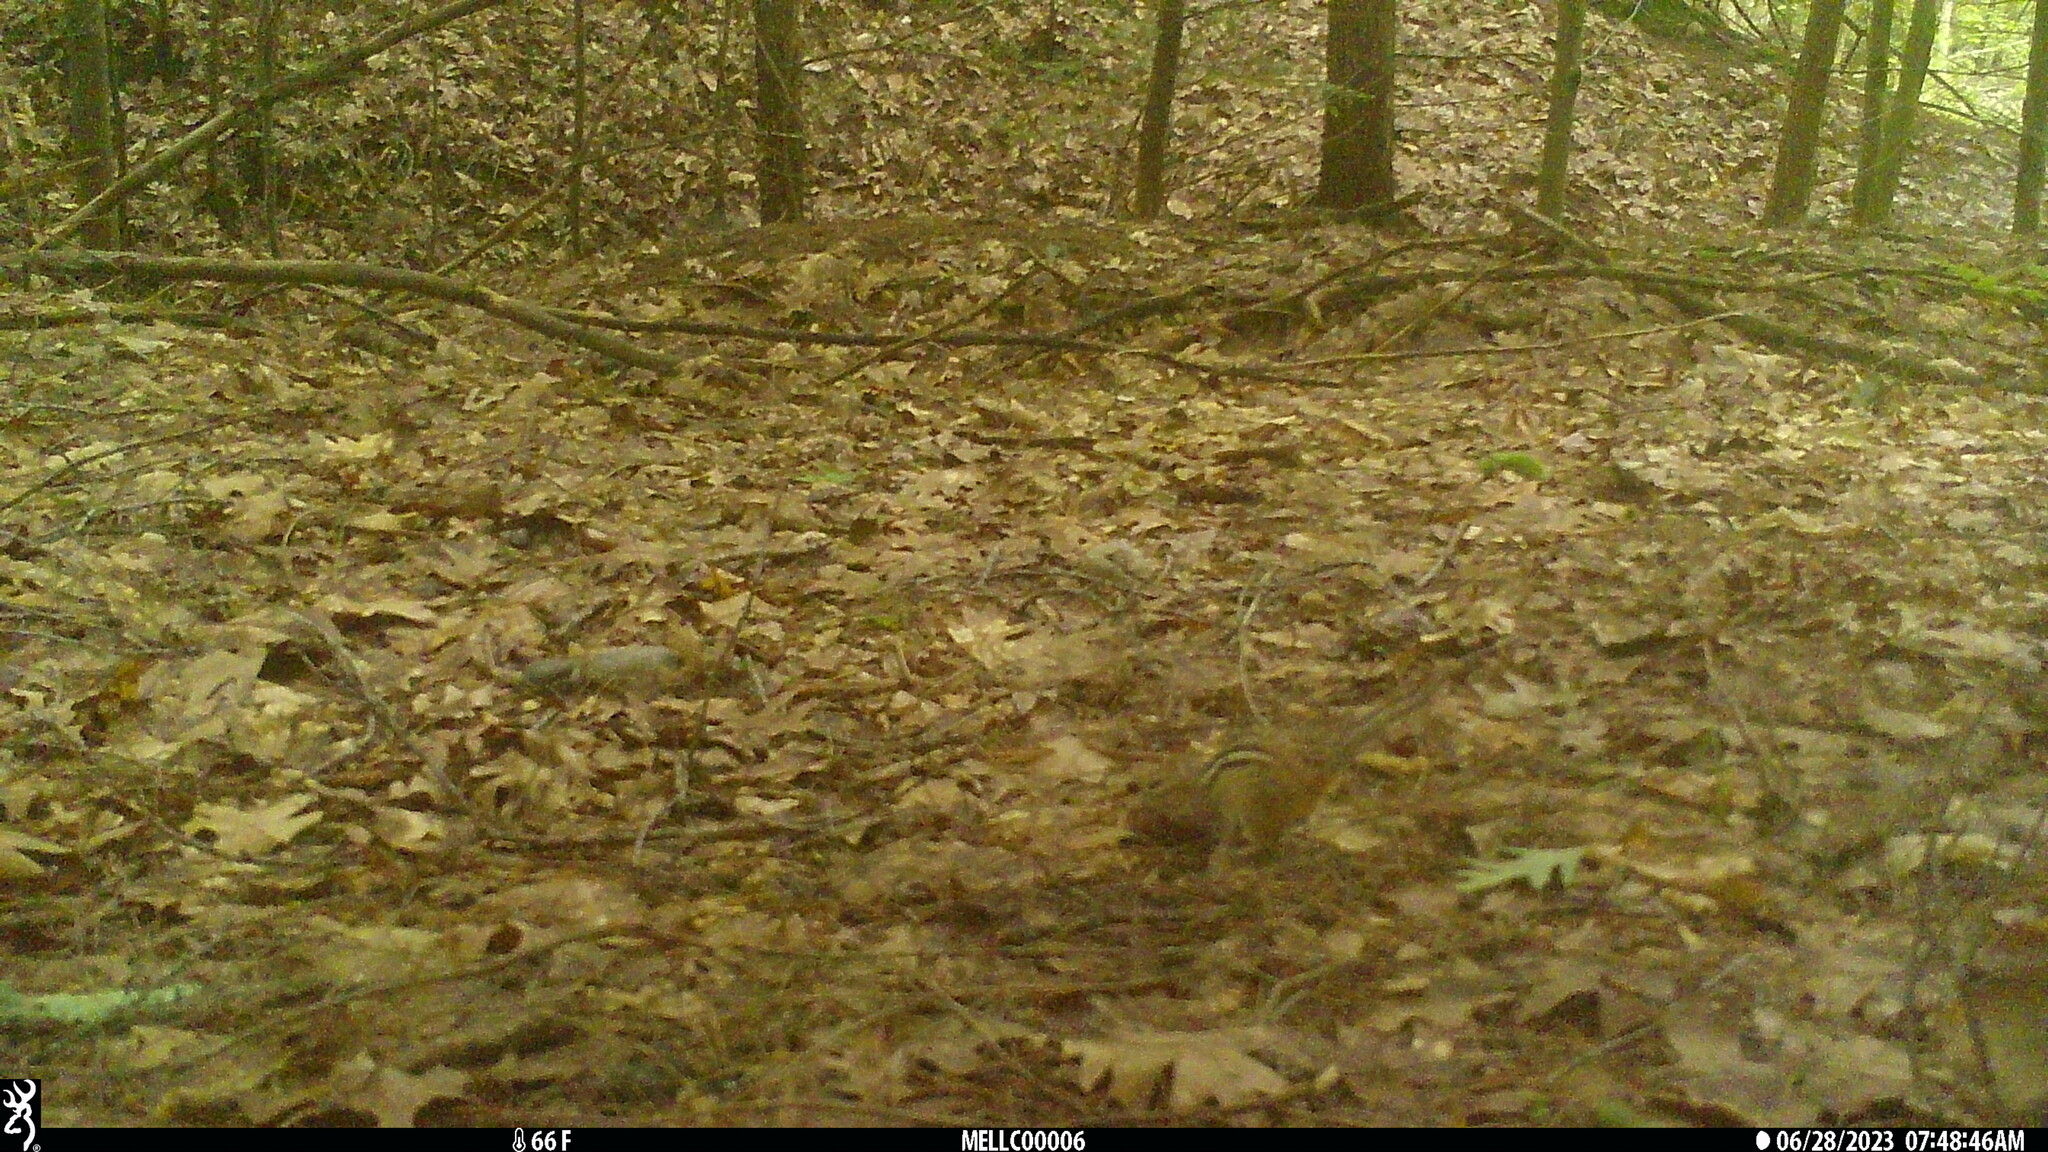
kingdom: Animalia
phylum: Chordata
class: Mammalia
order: Rodentia
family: Sciuridae
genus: Tamias
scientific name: Tamias striatus
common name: Eastern chipmunk
